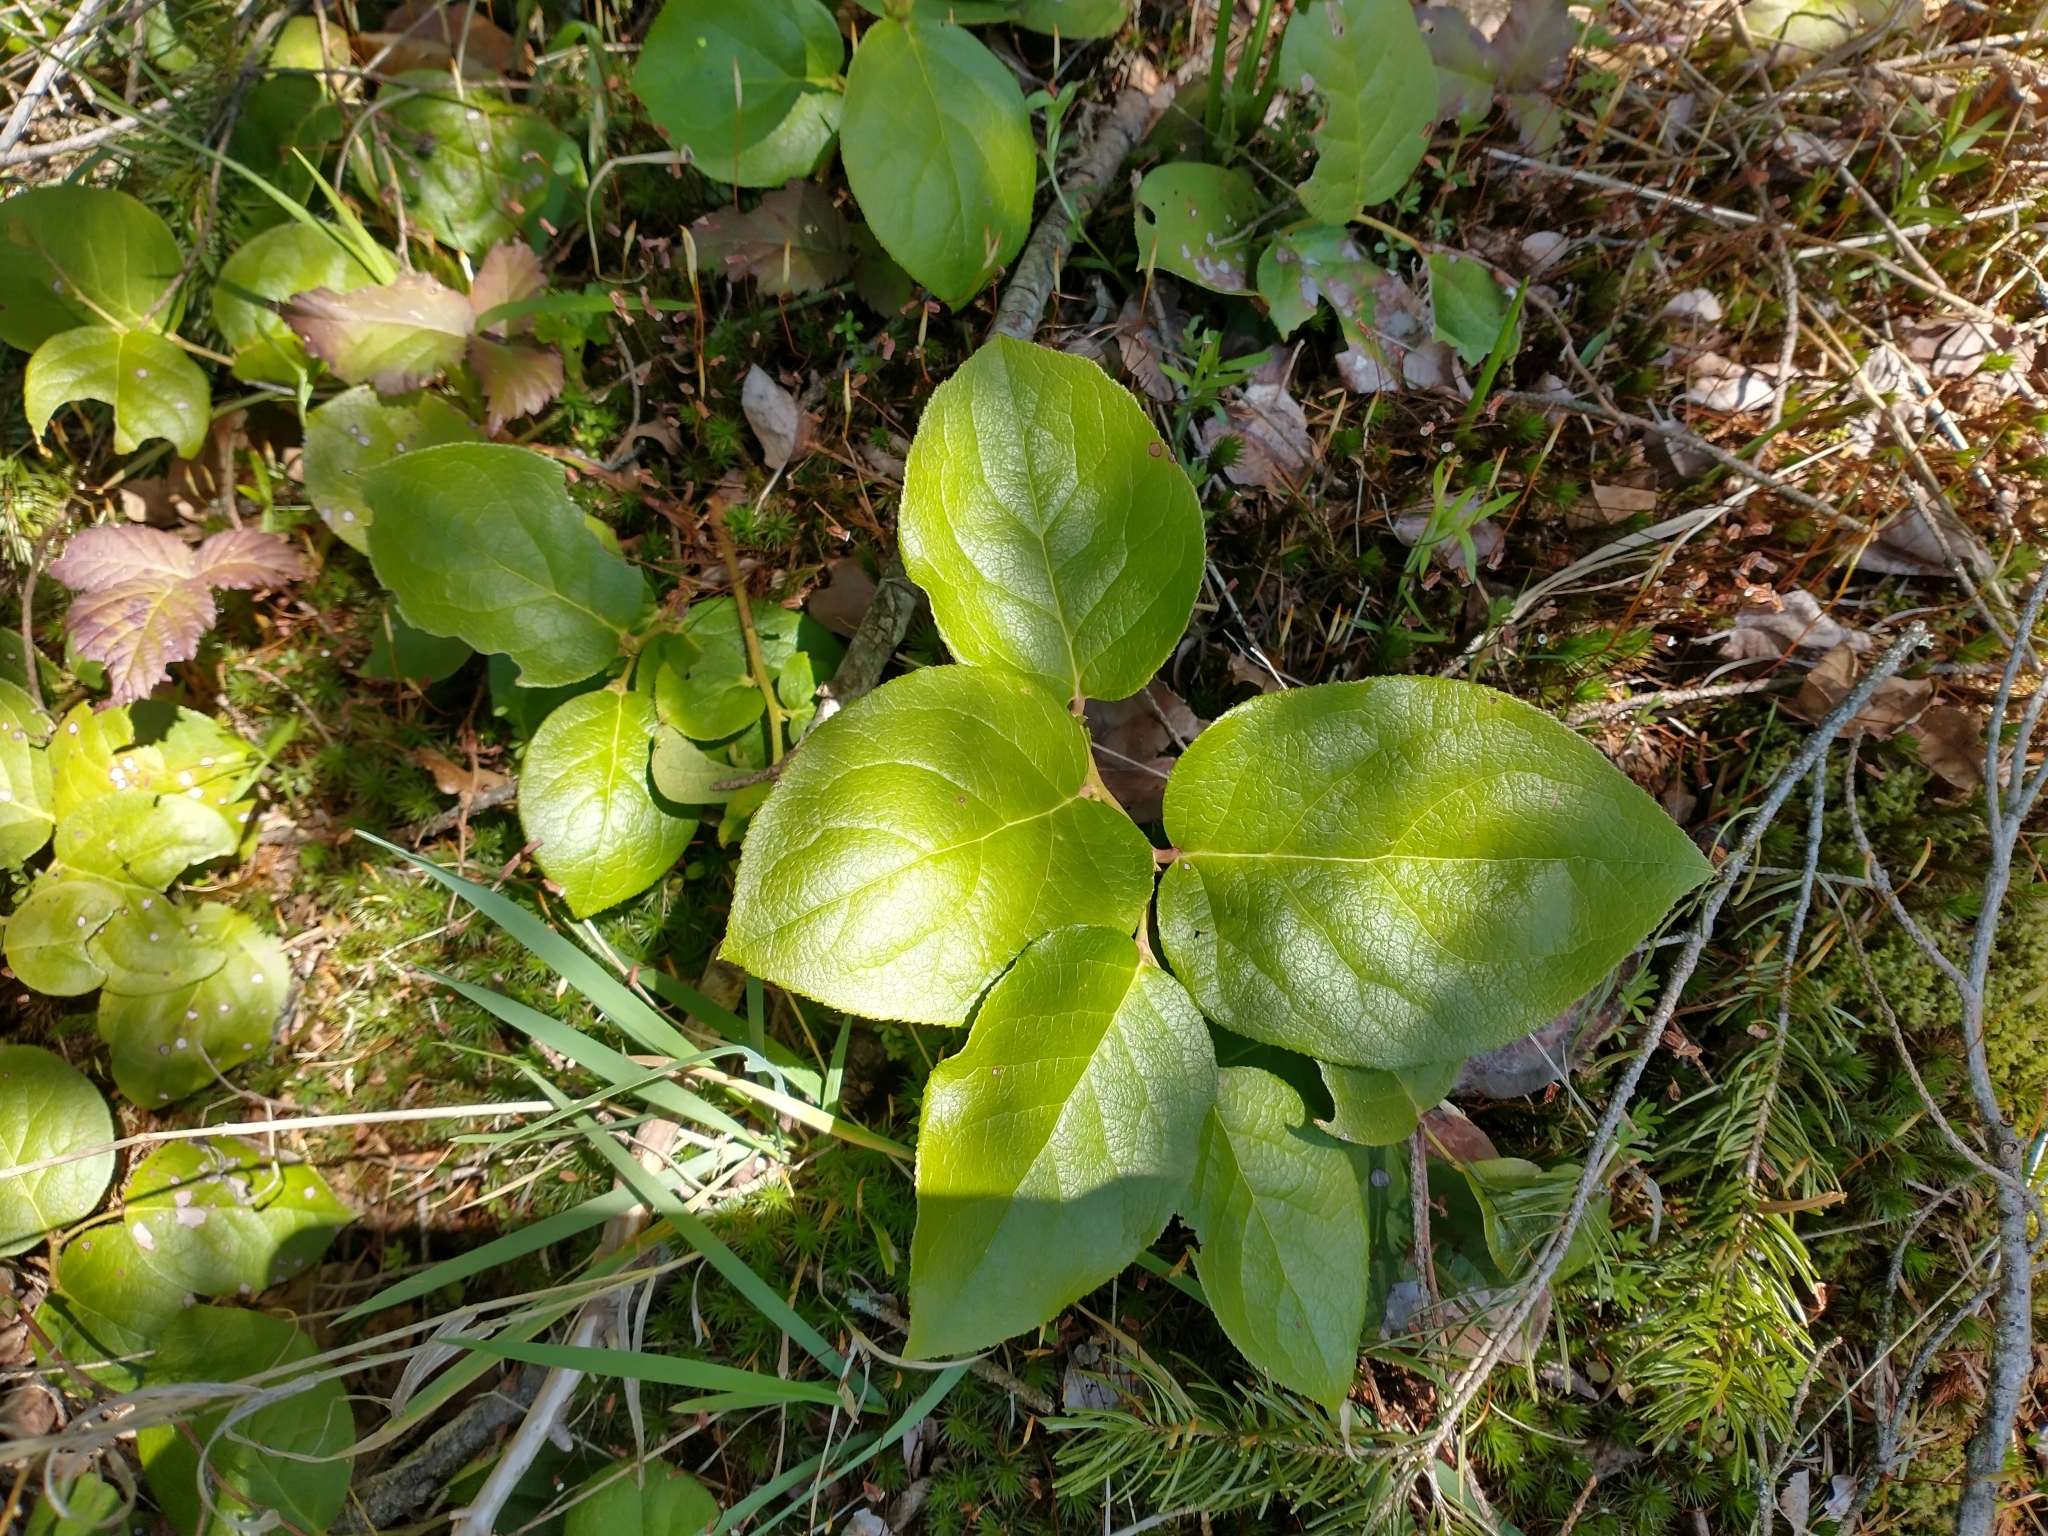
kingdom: Plantae
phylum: Tracheophyta
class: Magnoliopsida
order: Ericales
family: Ericaceae
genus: Gaultheria
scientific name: Gaultheria shallon
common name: Shallon
